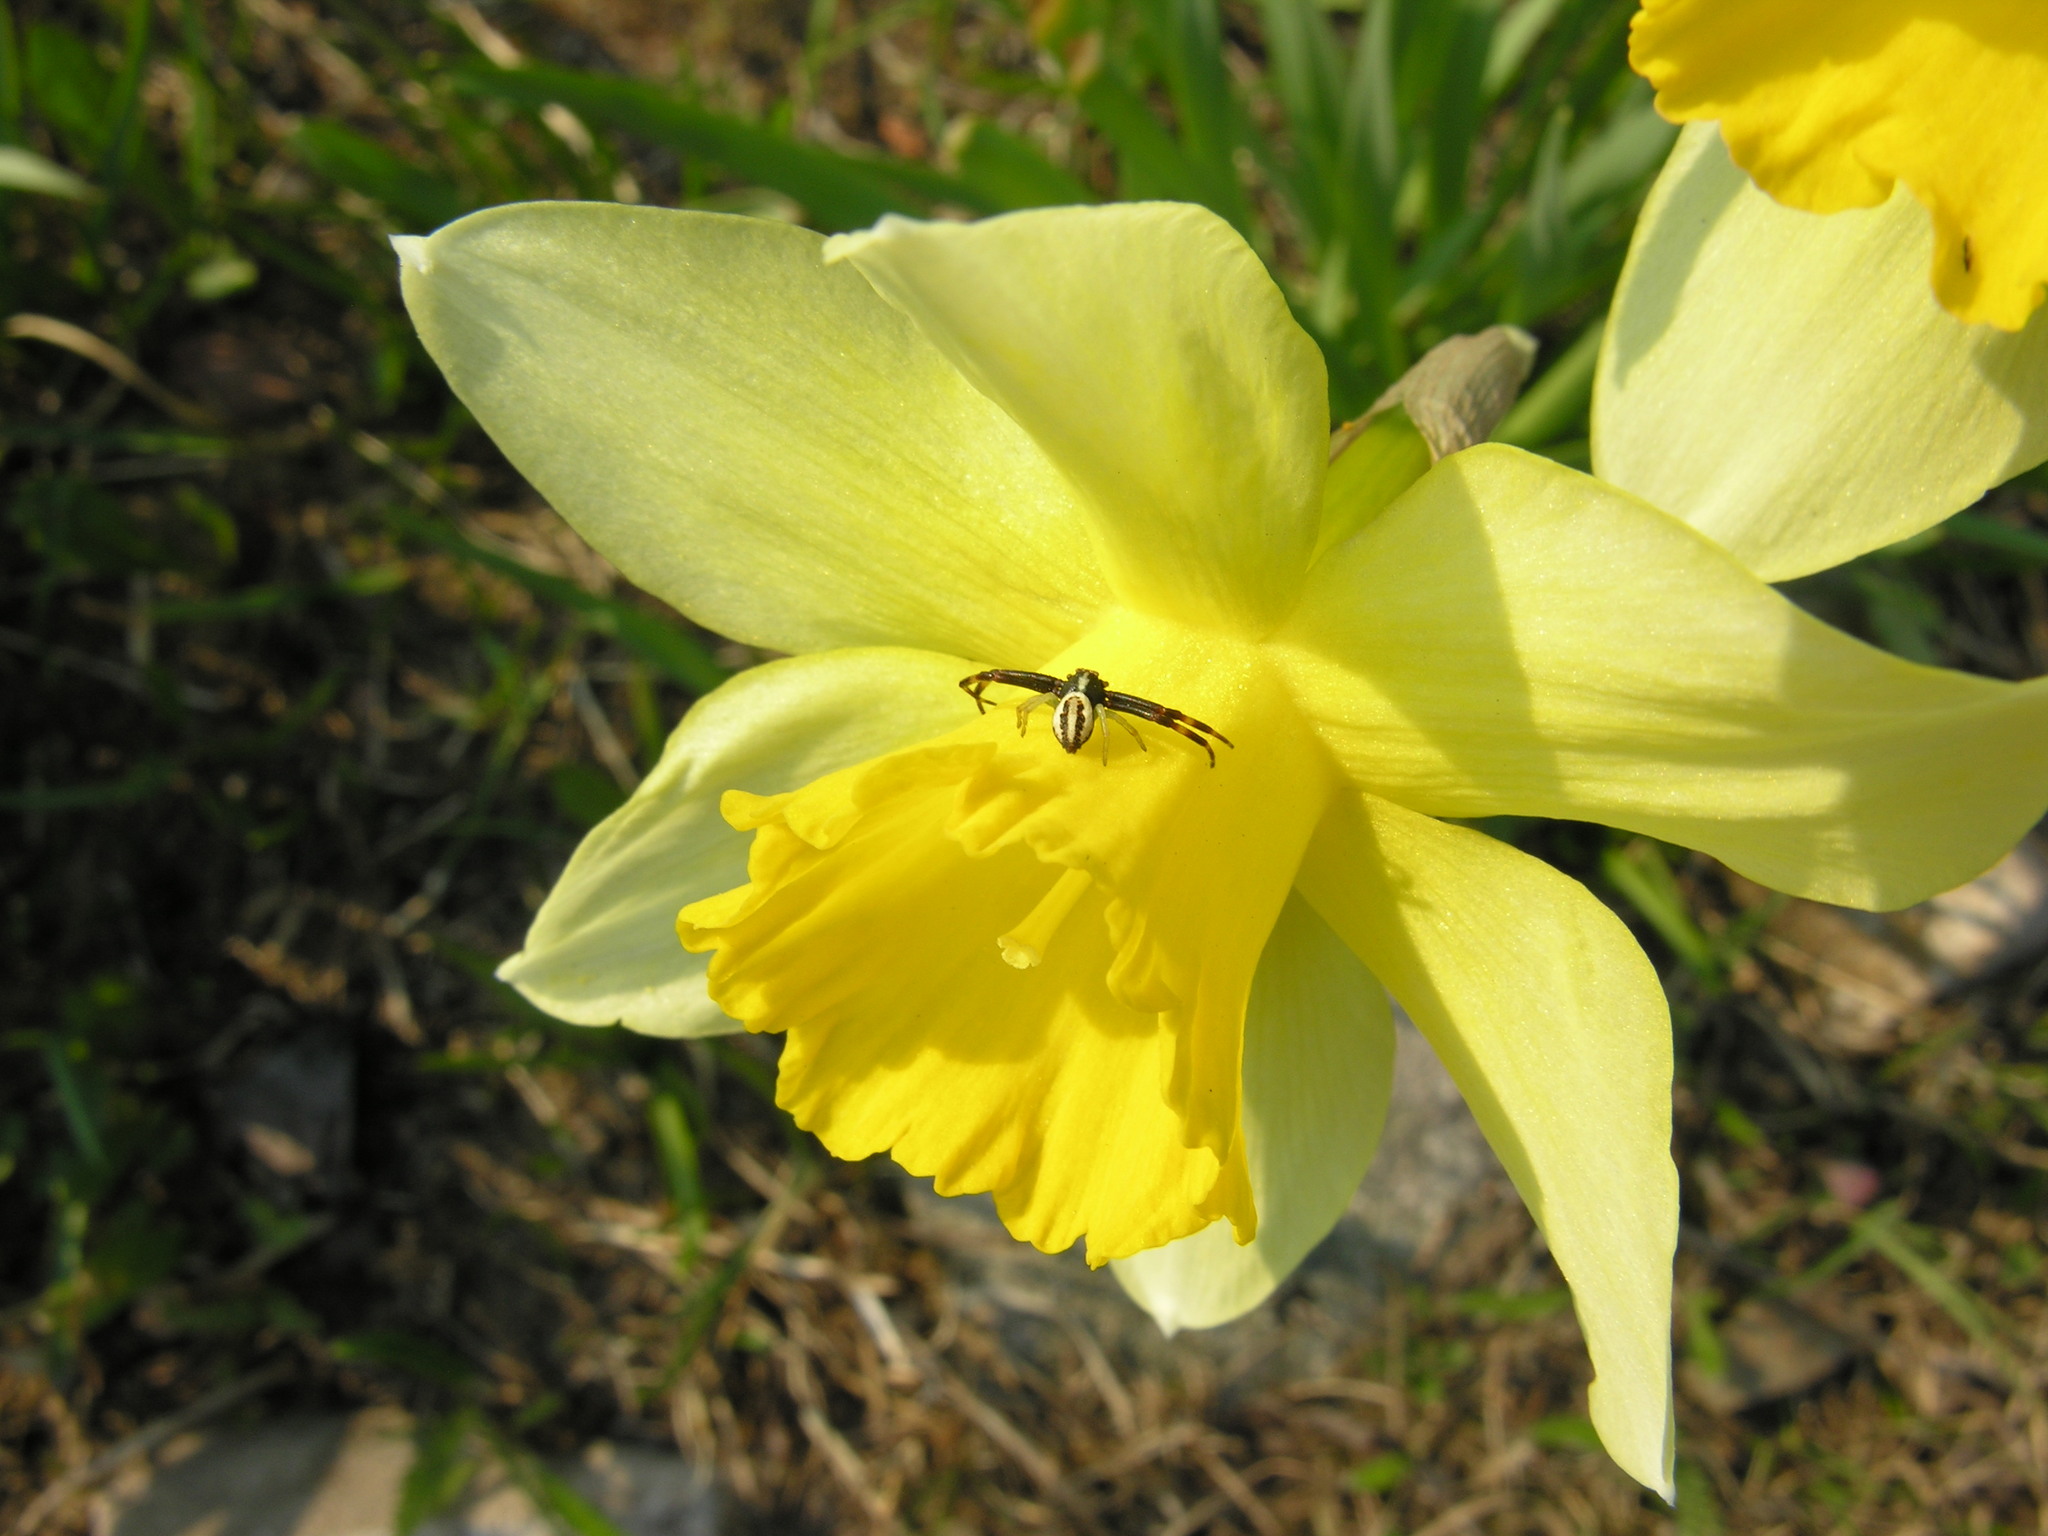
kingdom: Animalia
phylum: Arthropoda
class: Arachnida
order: Araneae
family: Thomisidae
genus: Misumena
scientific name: Misumena vatia
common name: Goldenrod crab spider
